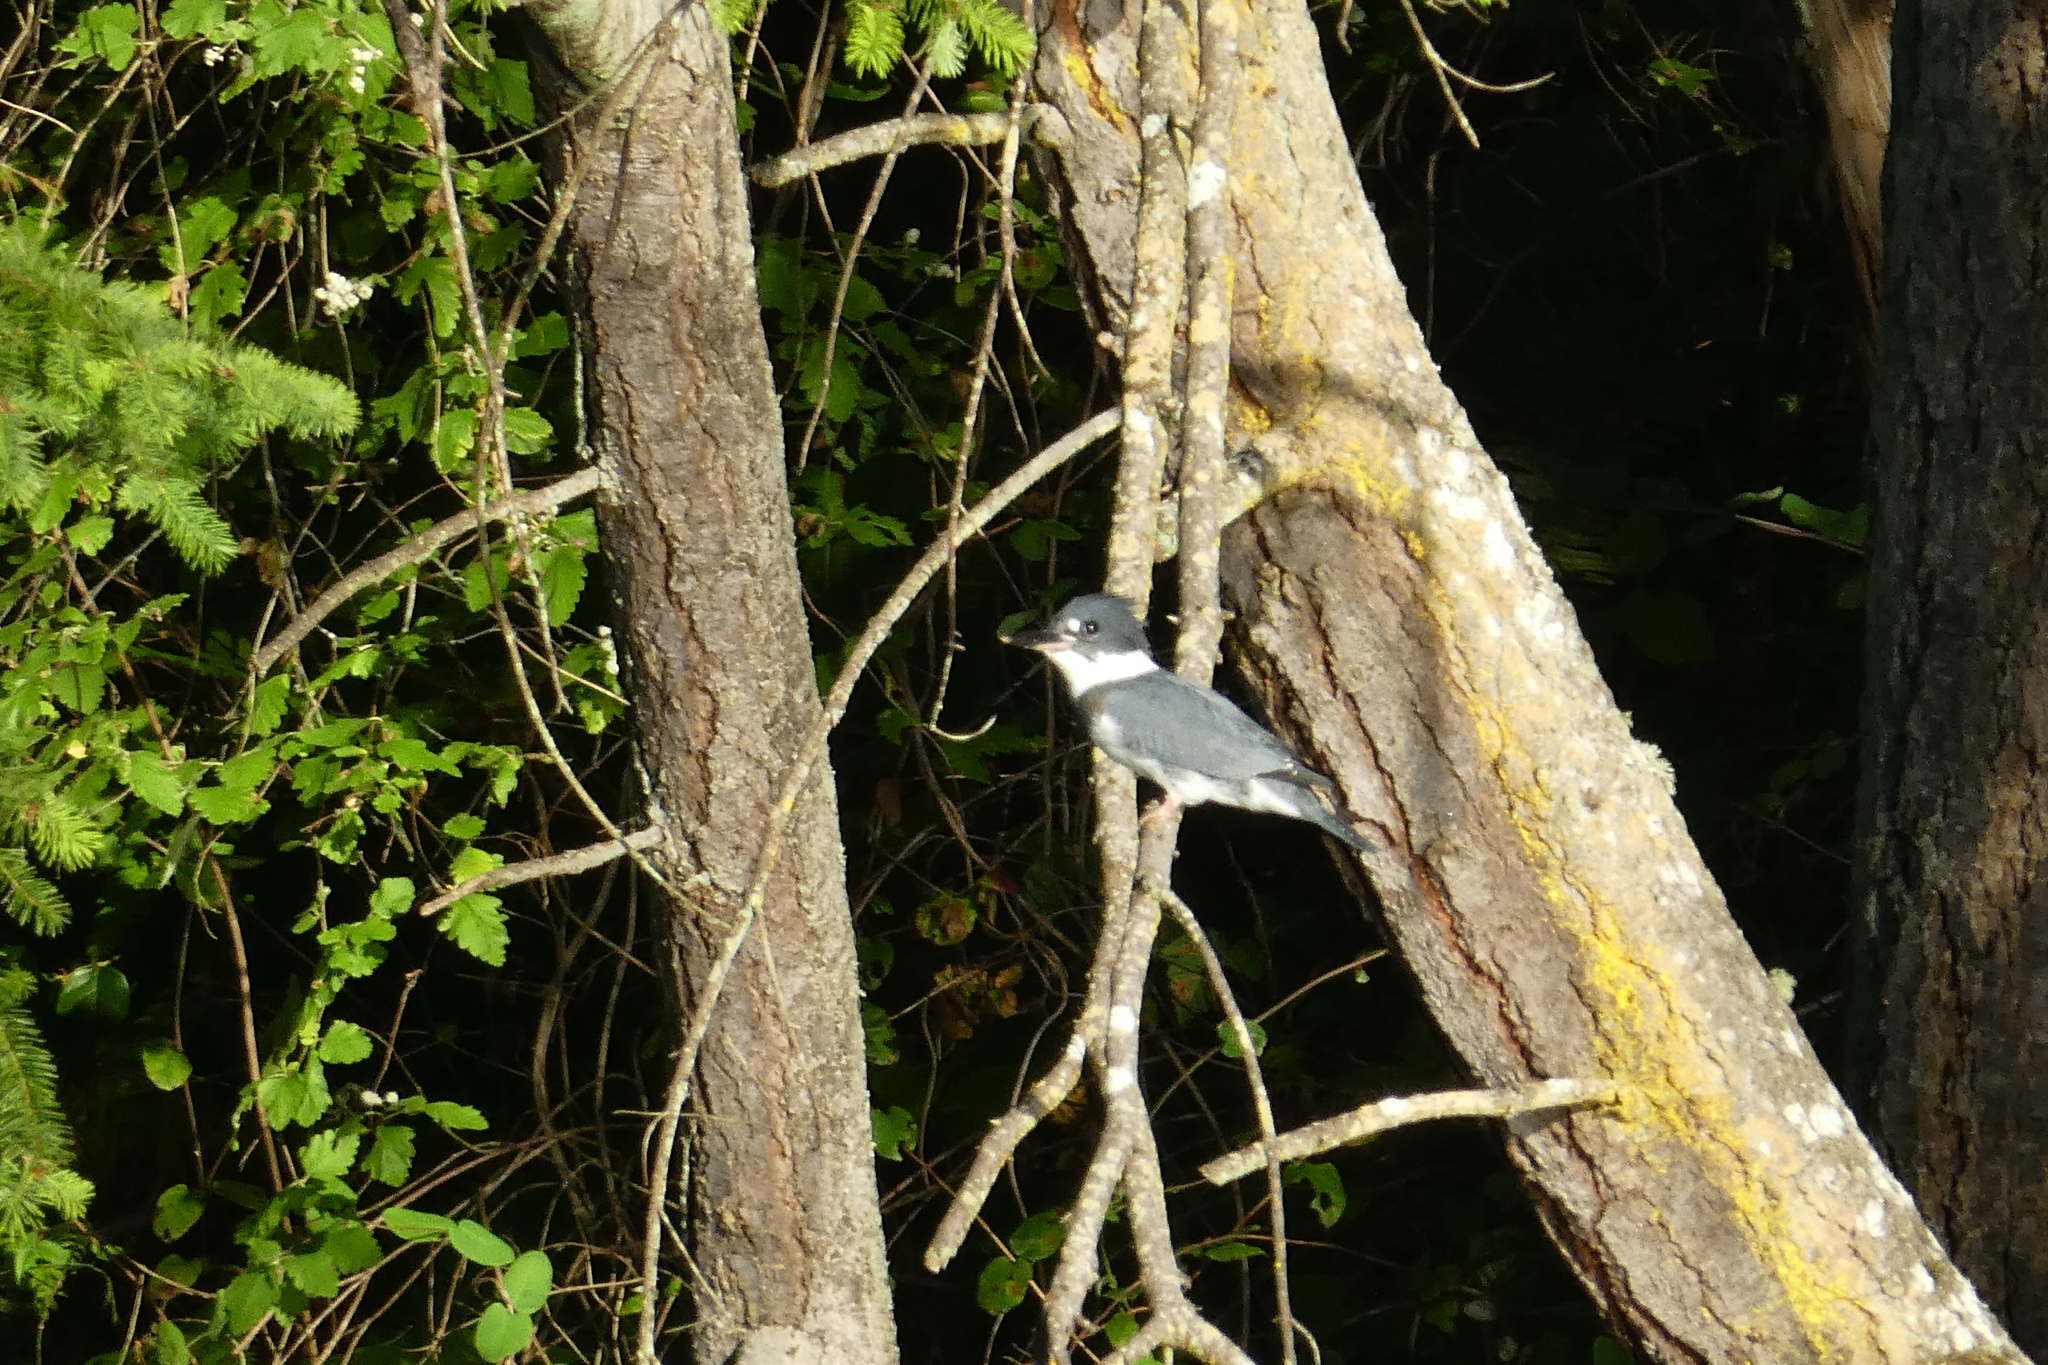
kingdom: Animalia
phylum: Chordata
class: Aves
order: Coraciiformes
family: Alcedinidae
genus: Megaceryle
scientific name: Megaceryle alcyon
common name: Belted kingfisher
